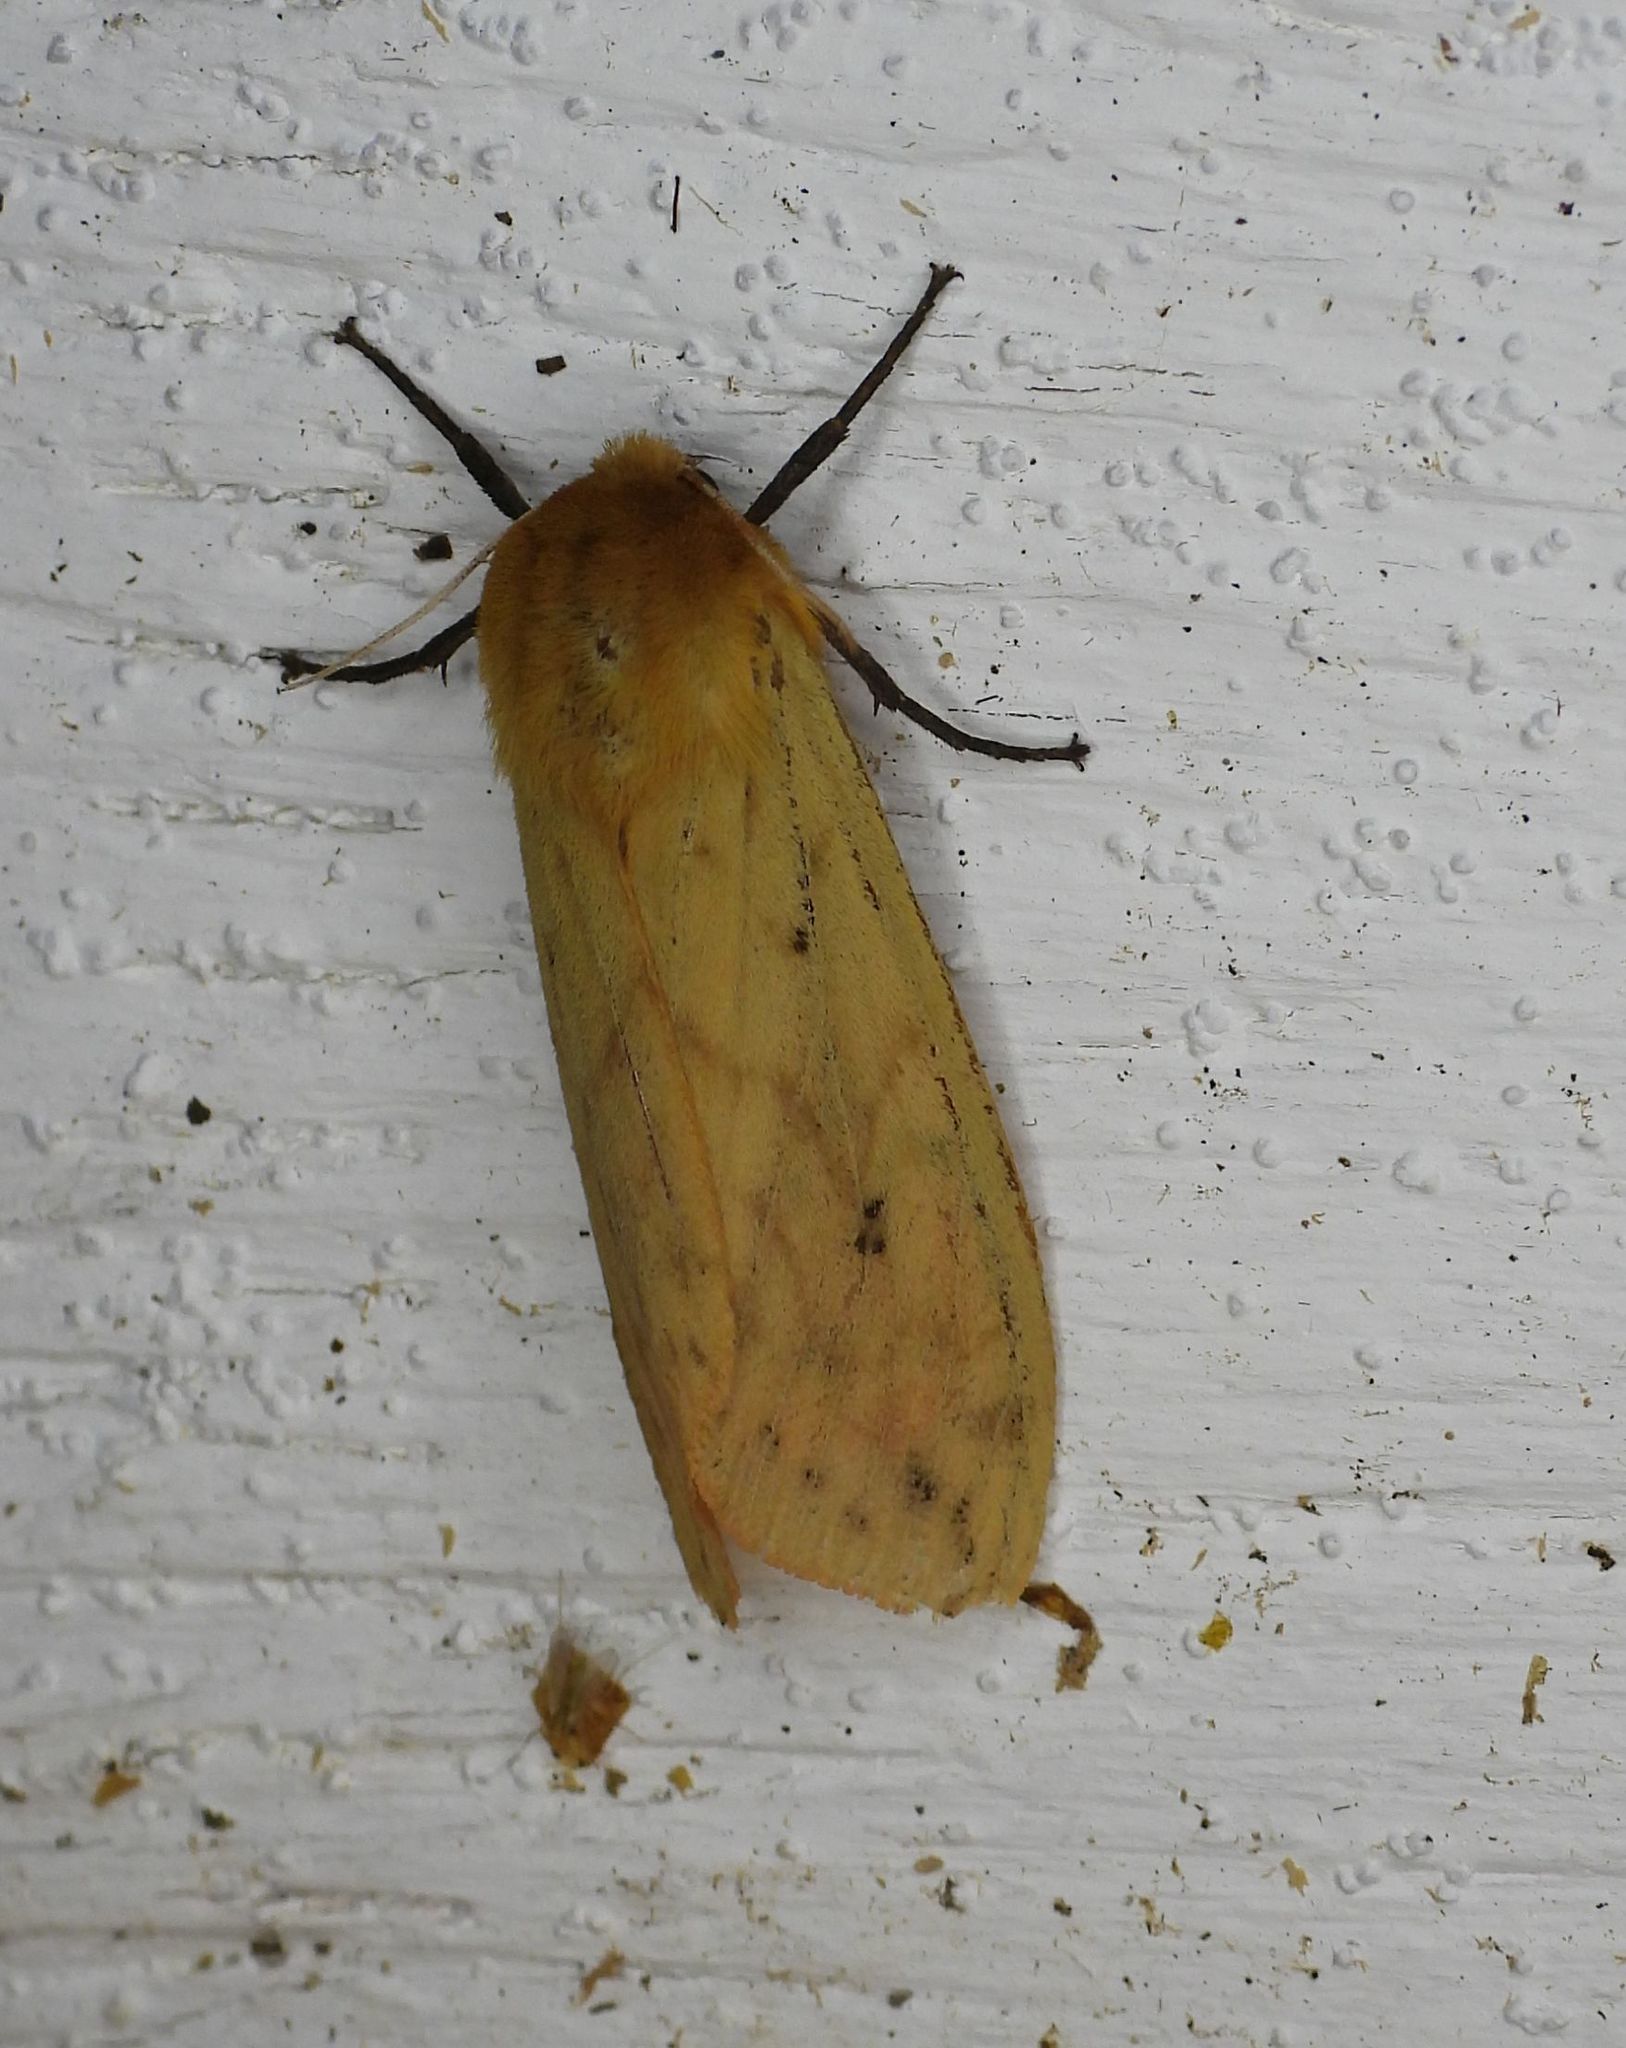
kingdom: Animalia
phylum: Arthropoda
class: Insecta
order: Lepidoptera
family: Erebidae
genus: Pyrrharctia
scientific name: Pyrrharctia isabella
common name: Isabella tiger moth
